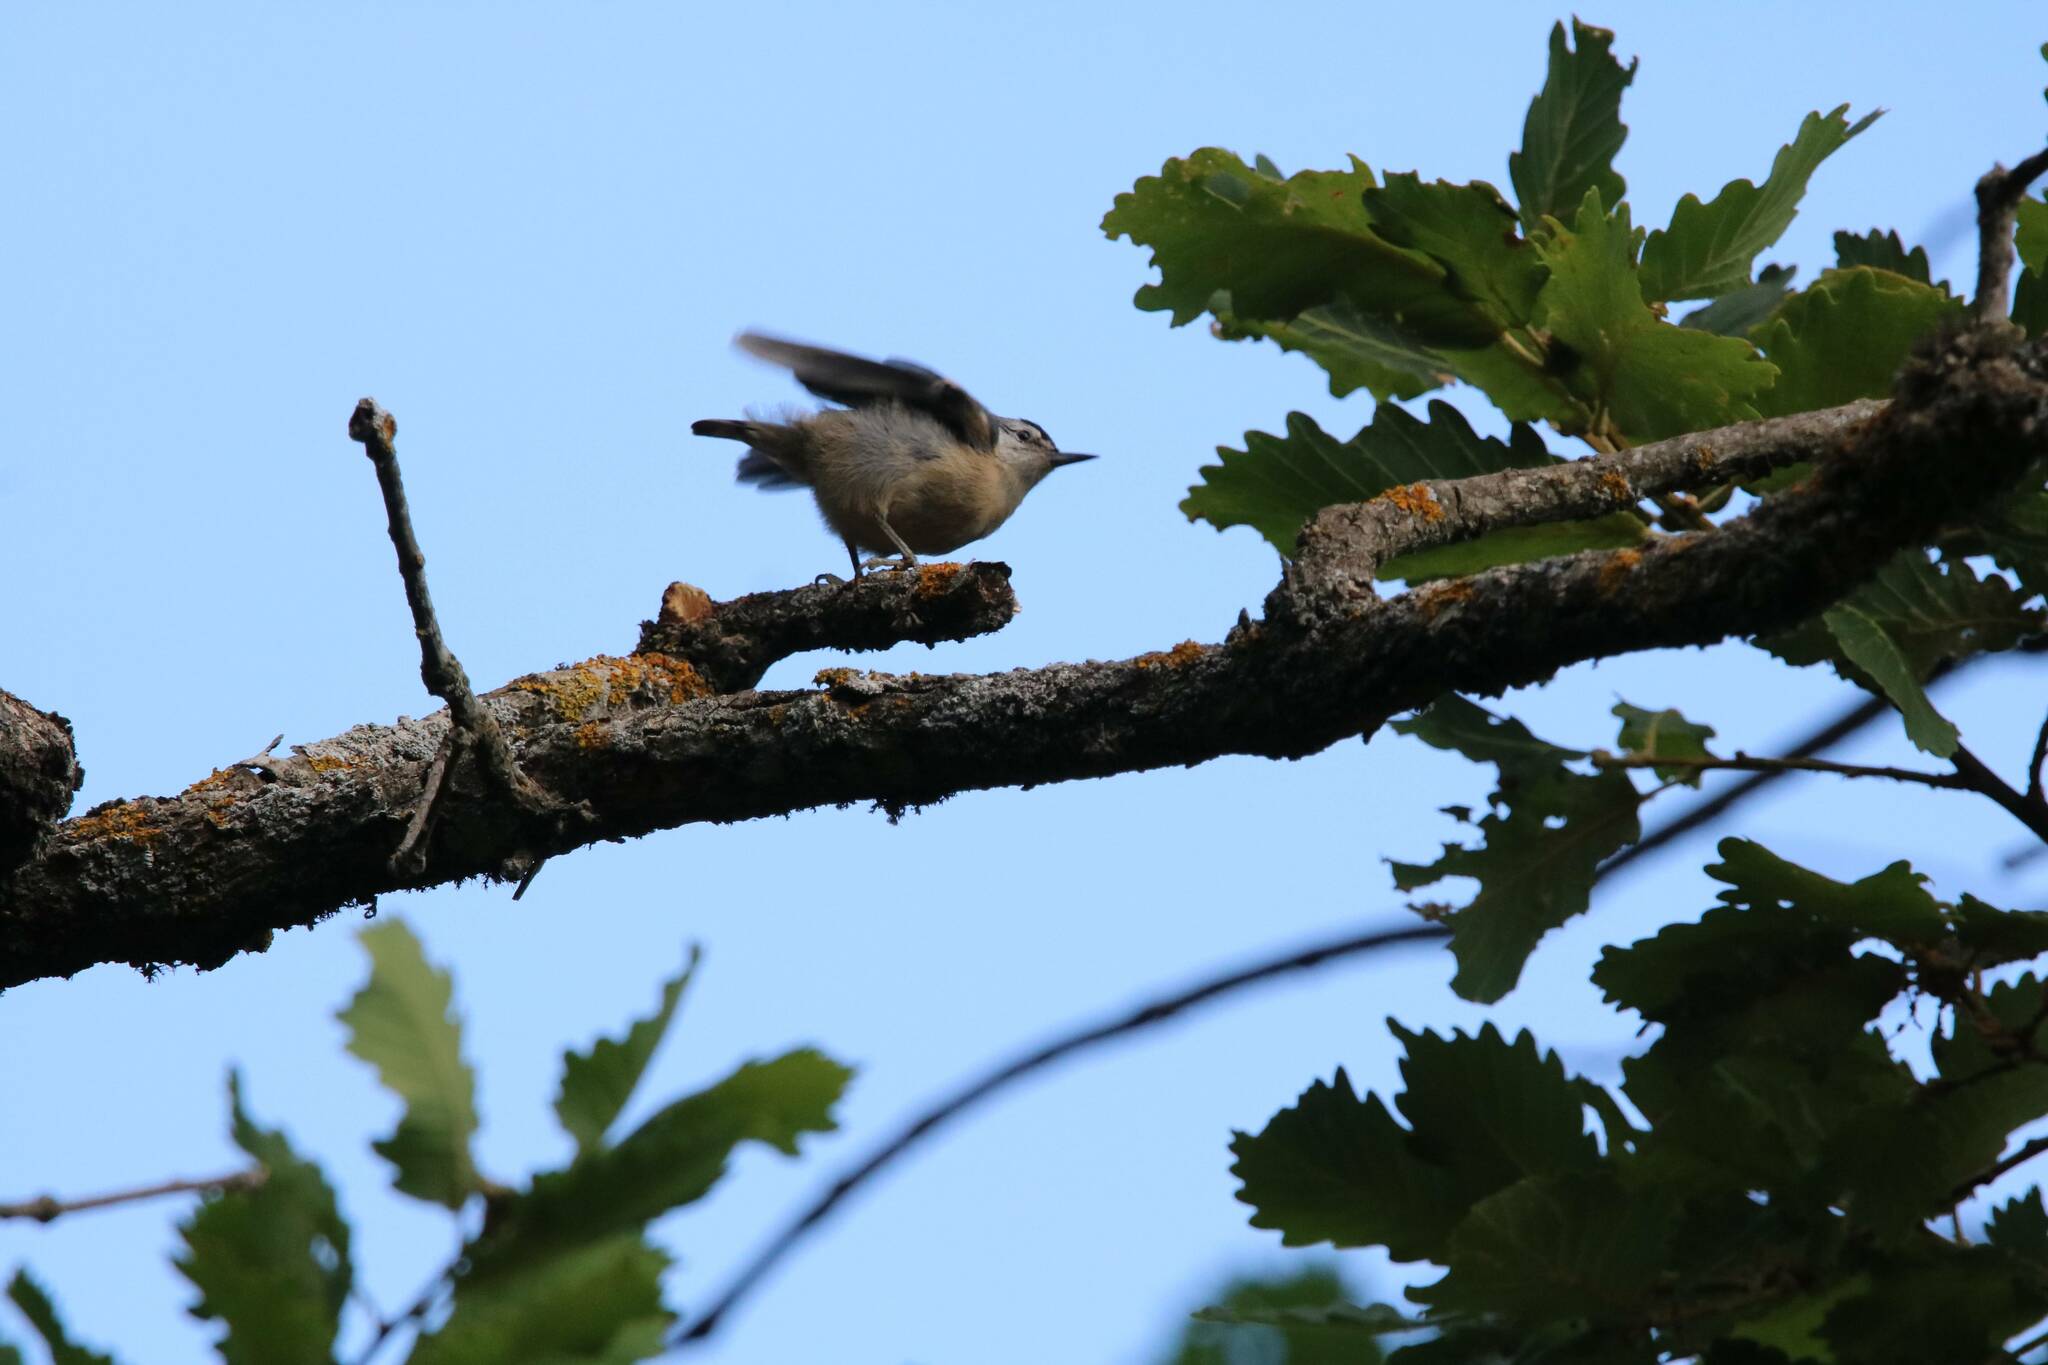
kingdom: Animalia
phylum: Chordata
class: Aves
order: Passeriformes
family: Sittidae
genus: Sitta
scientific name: Sitta ledanti
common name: Algerian nuthatch
